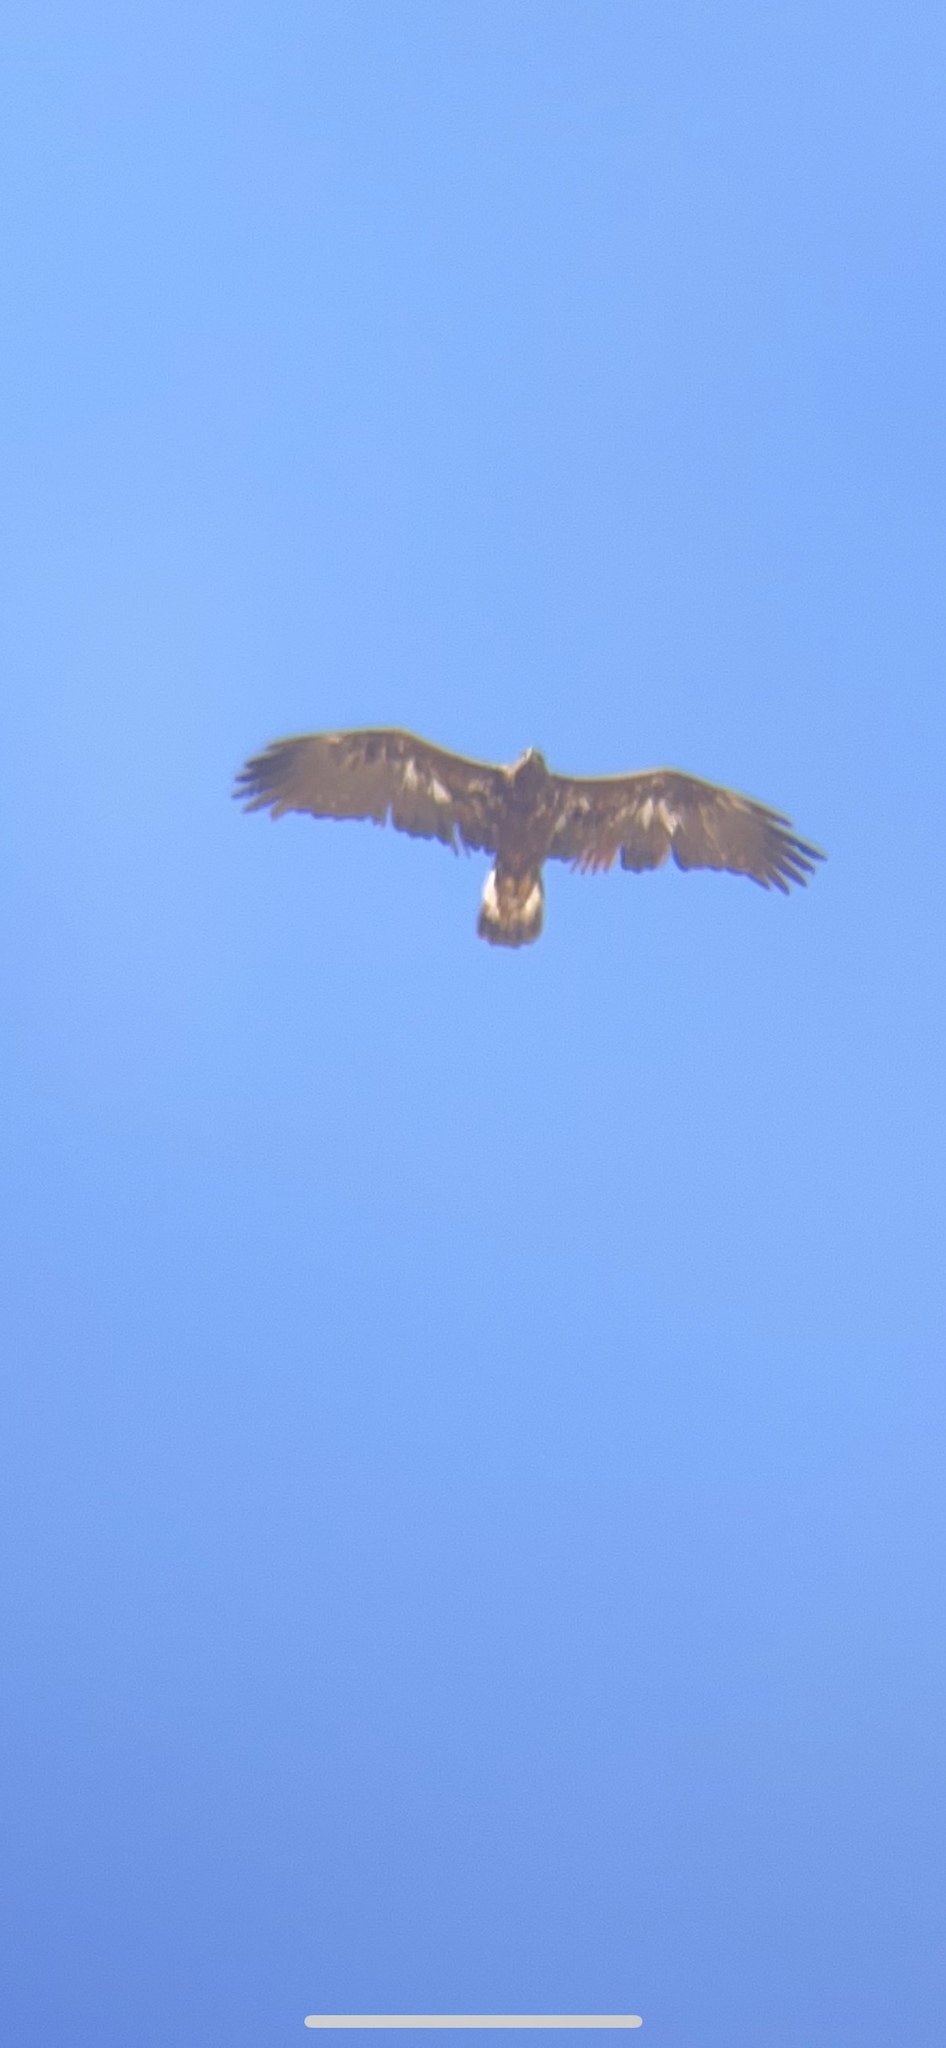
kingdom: Animalia
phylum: Chordata
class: Aves
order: Accipitriformes
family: Accipitridae
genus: Aquila
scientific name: Aquila chrysaetos
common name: Golden eagle
